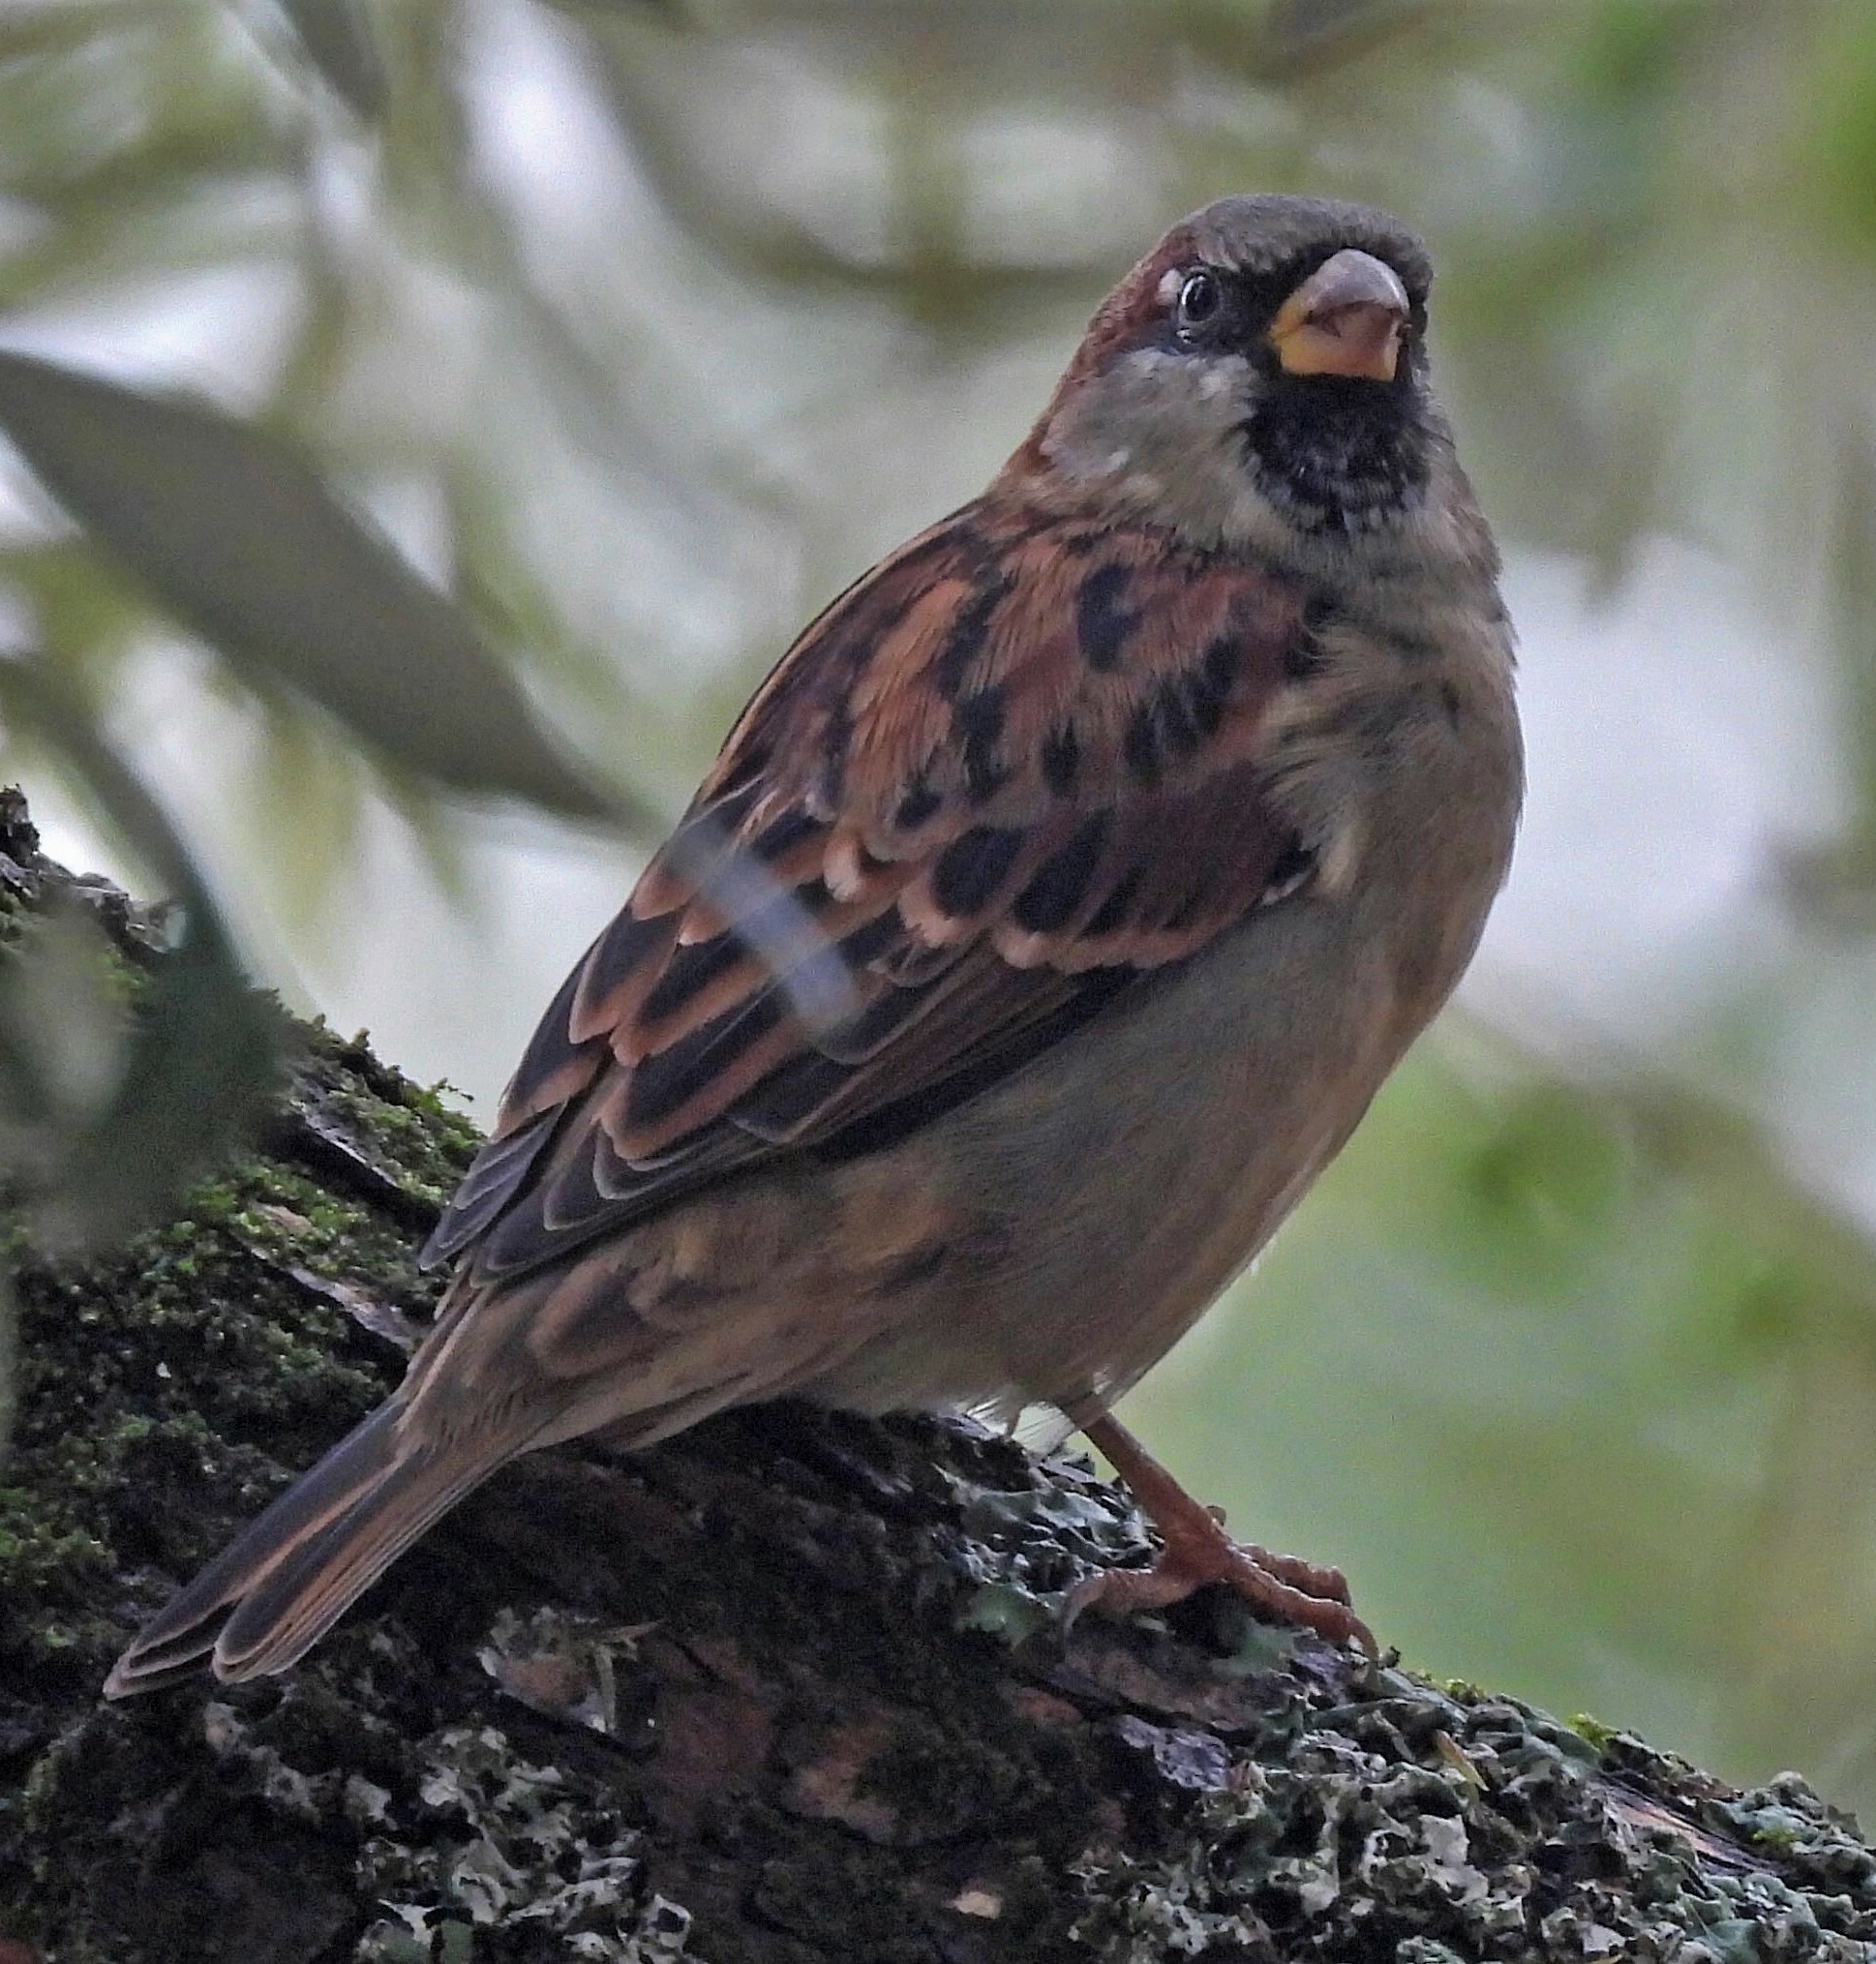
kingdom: Animalia
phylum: Chordata
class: Aves
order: Passeriformes
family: Passeridae
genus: Passer
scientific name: Passer domesticus
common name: House sparrow
